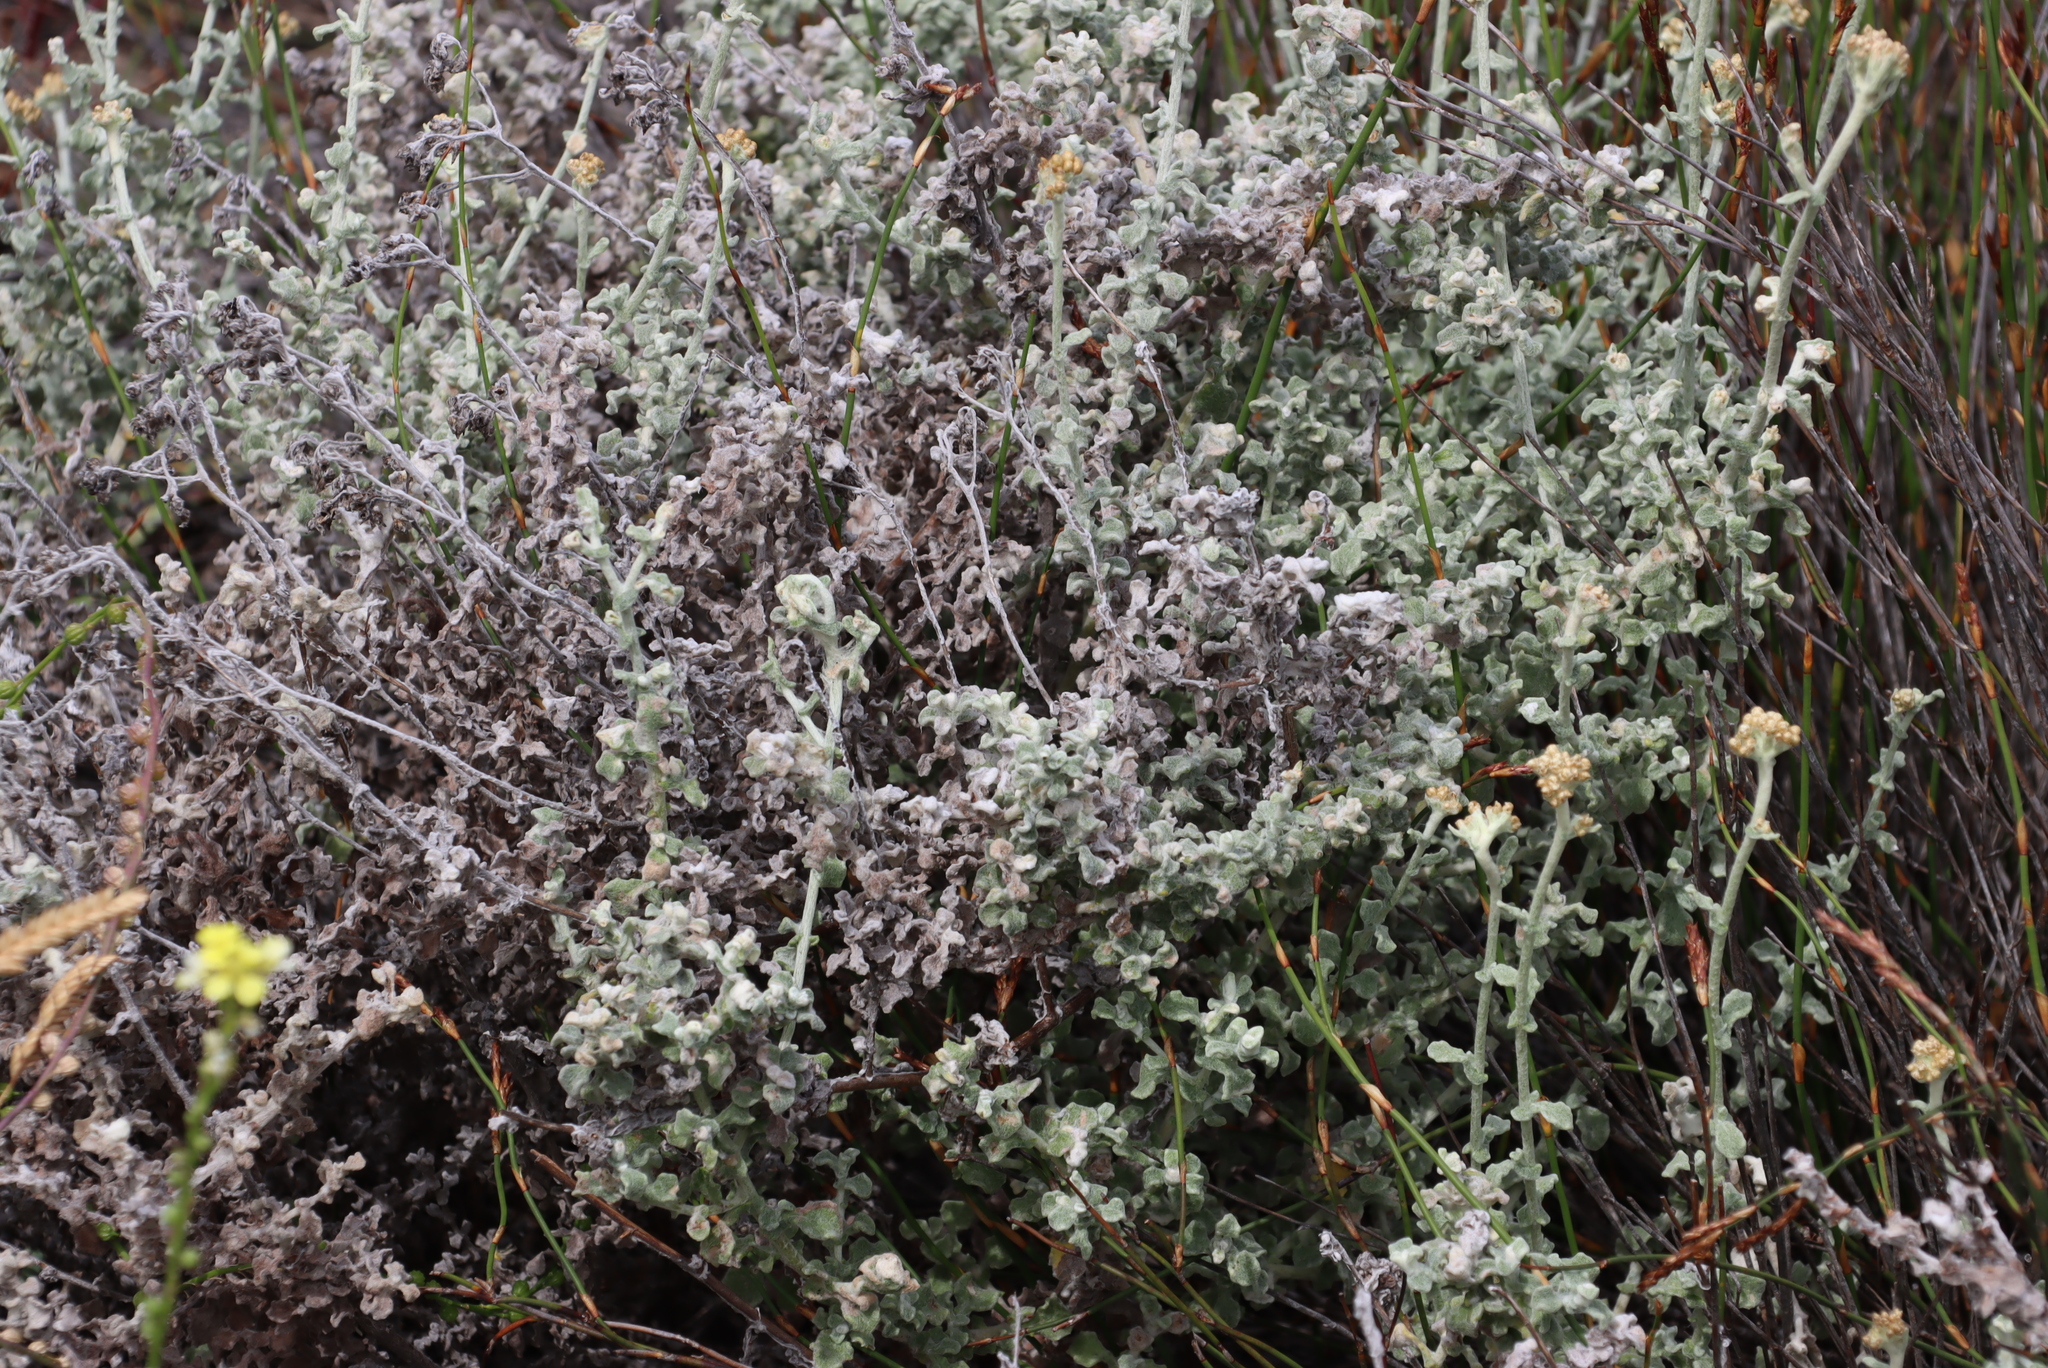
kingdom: Plantae
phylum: Tracheophyta
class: Magnoliopsida
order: Asterales
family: Asteraceae
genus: Helichrysum
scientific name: Helichrysum patulum
